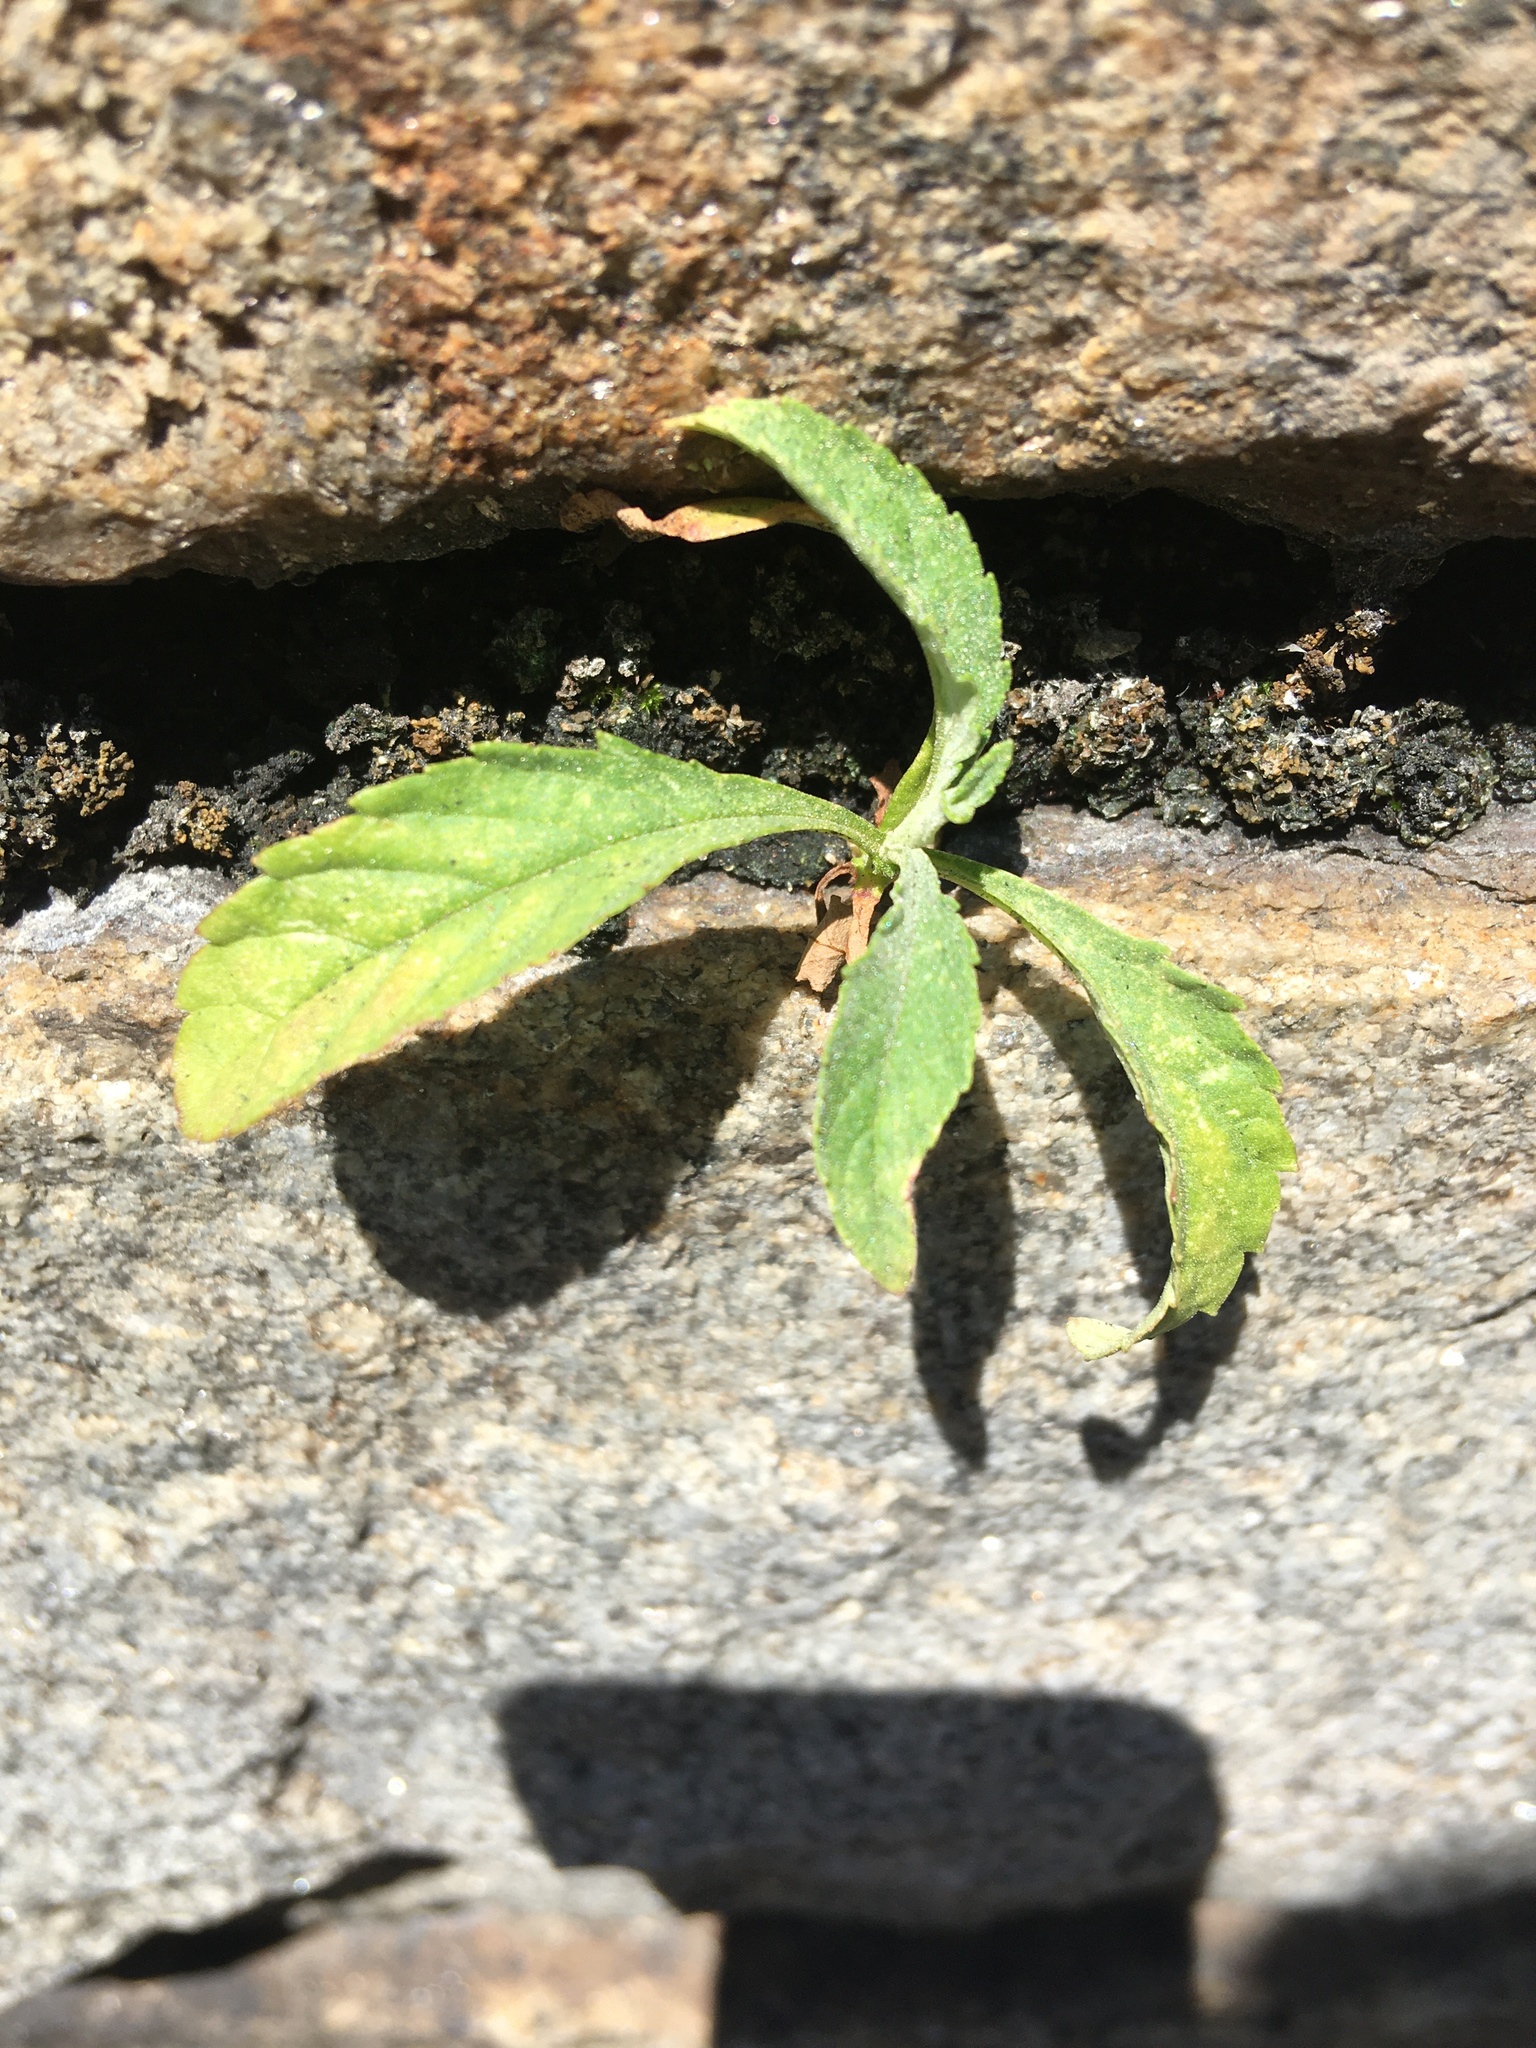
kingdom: Plantae
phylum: Tracheophyta
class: Magnoliopsida
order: Lamiales
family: Scrophulariaceae
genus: Buddleja
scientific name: Buddleja davidii
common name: Butterfly-bush
